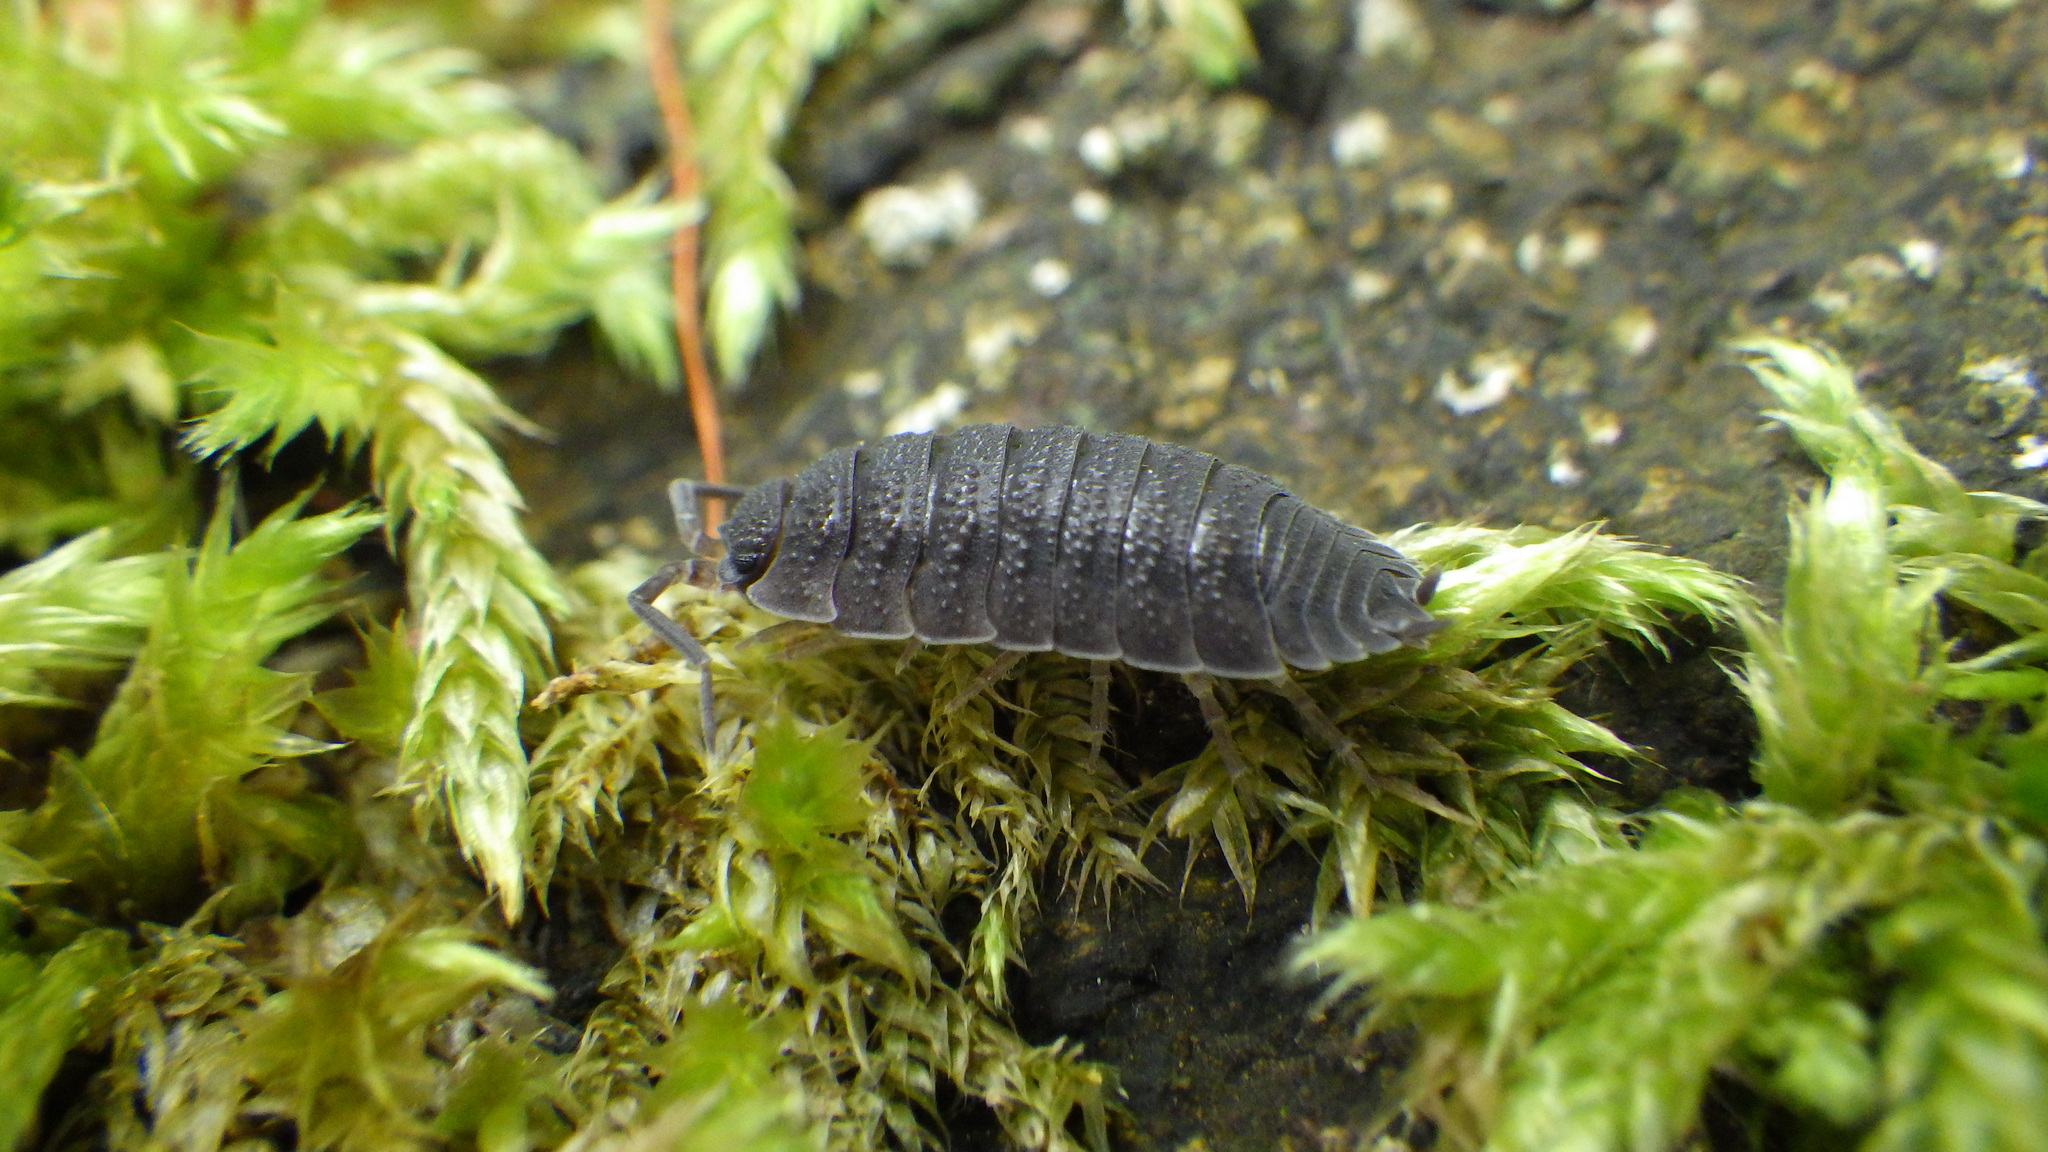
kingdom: Animalia
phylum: Arthropoda
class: Malacostraca
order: Isopoda
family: Porcellionidae
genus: Porcellio
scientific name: Porcellio scaber
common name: Common rough woodlouse
